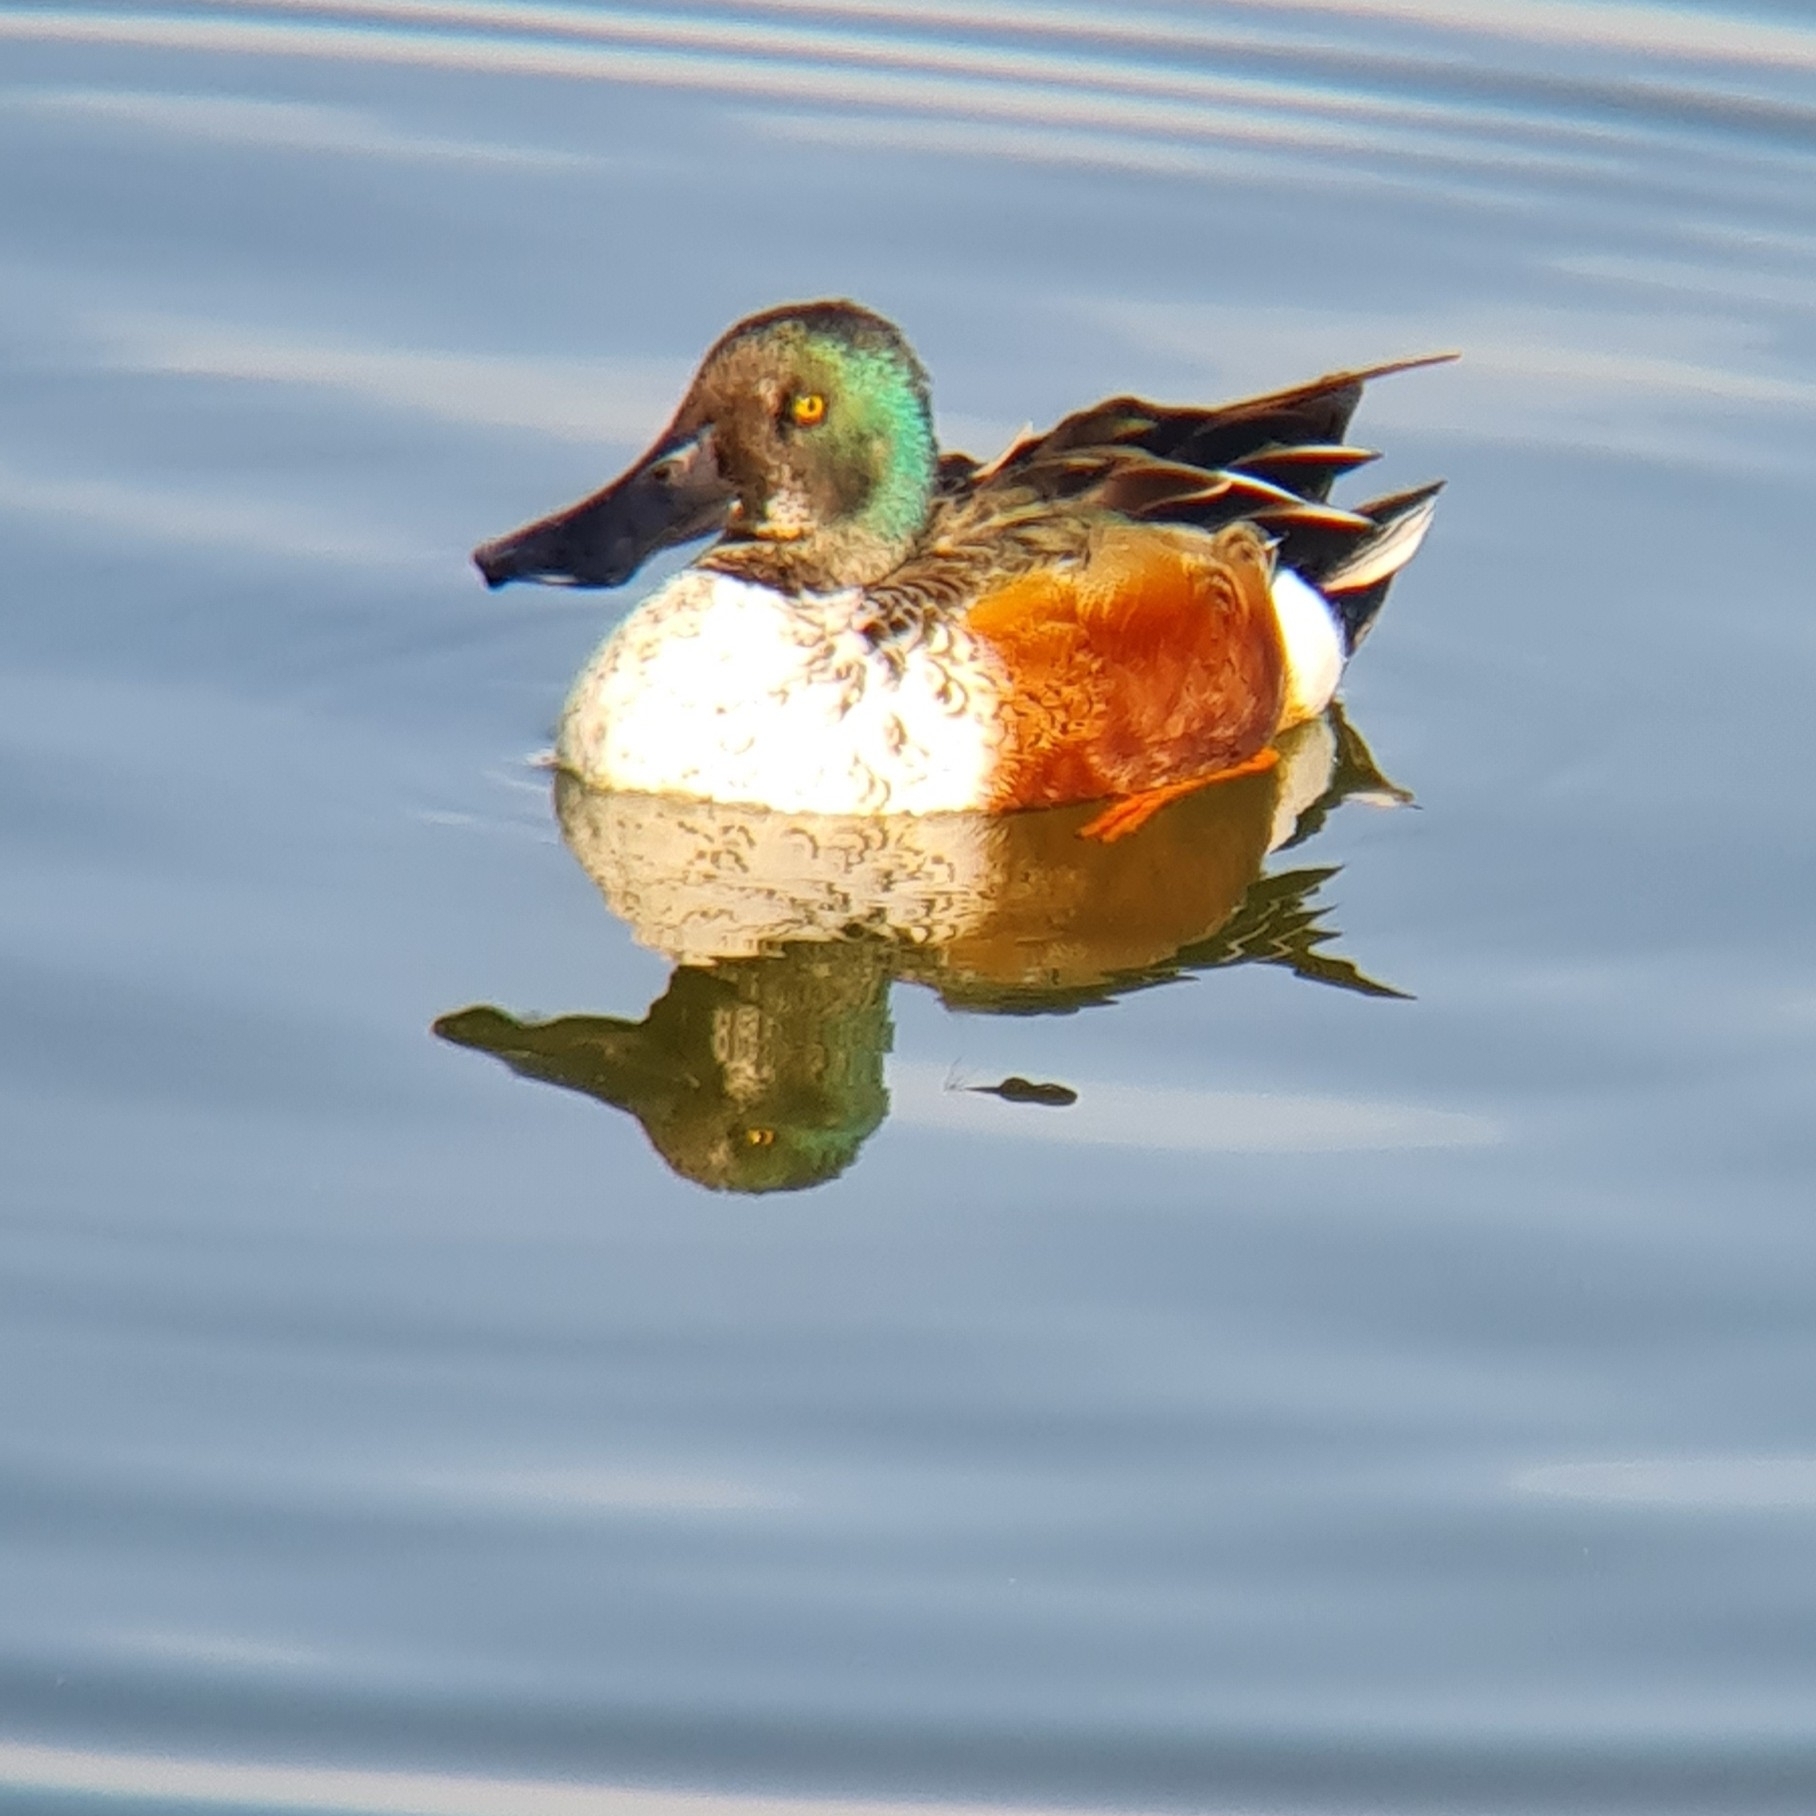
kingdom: Animalia
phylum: Chordata
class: Aves
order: Anseriformes
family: Anatidae
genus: Spatula
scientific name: Spatula clypeata
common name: Northern shoveler
